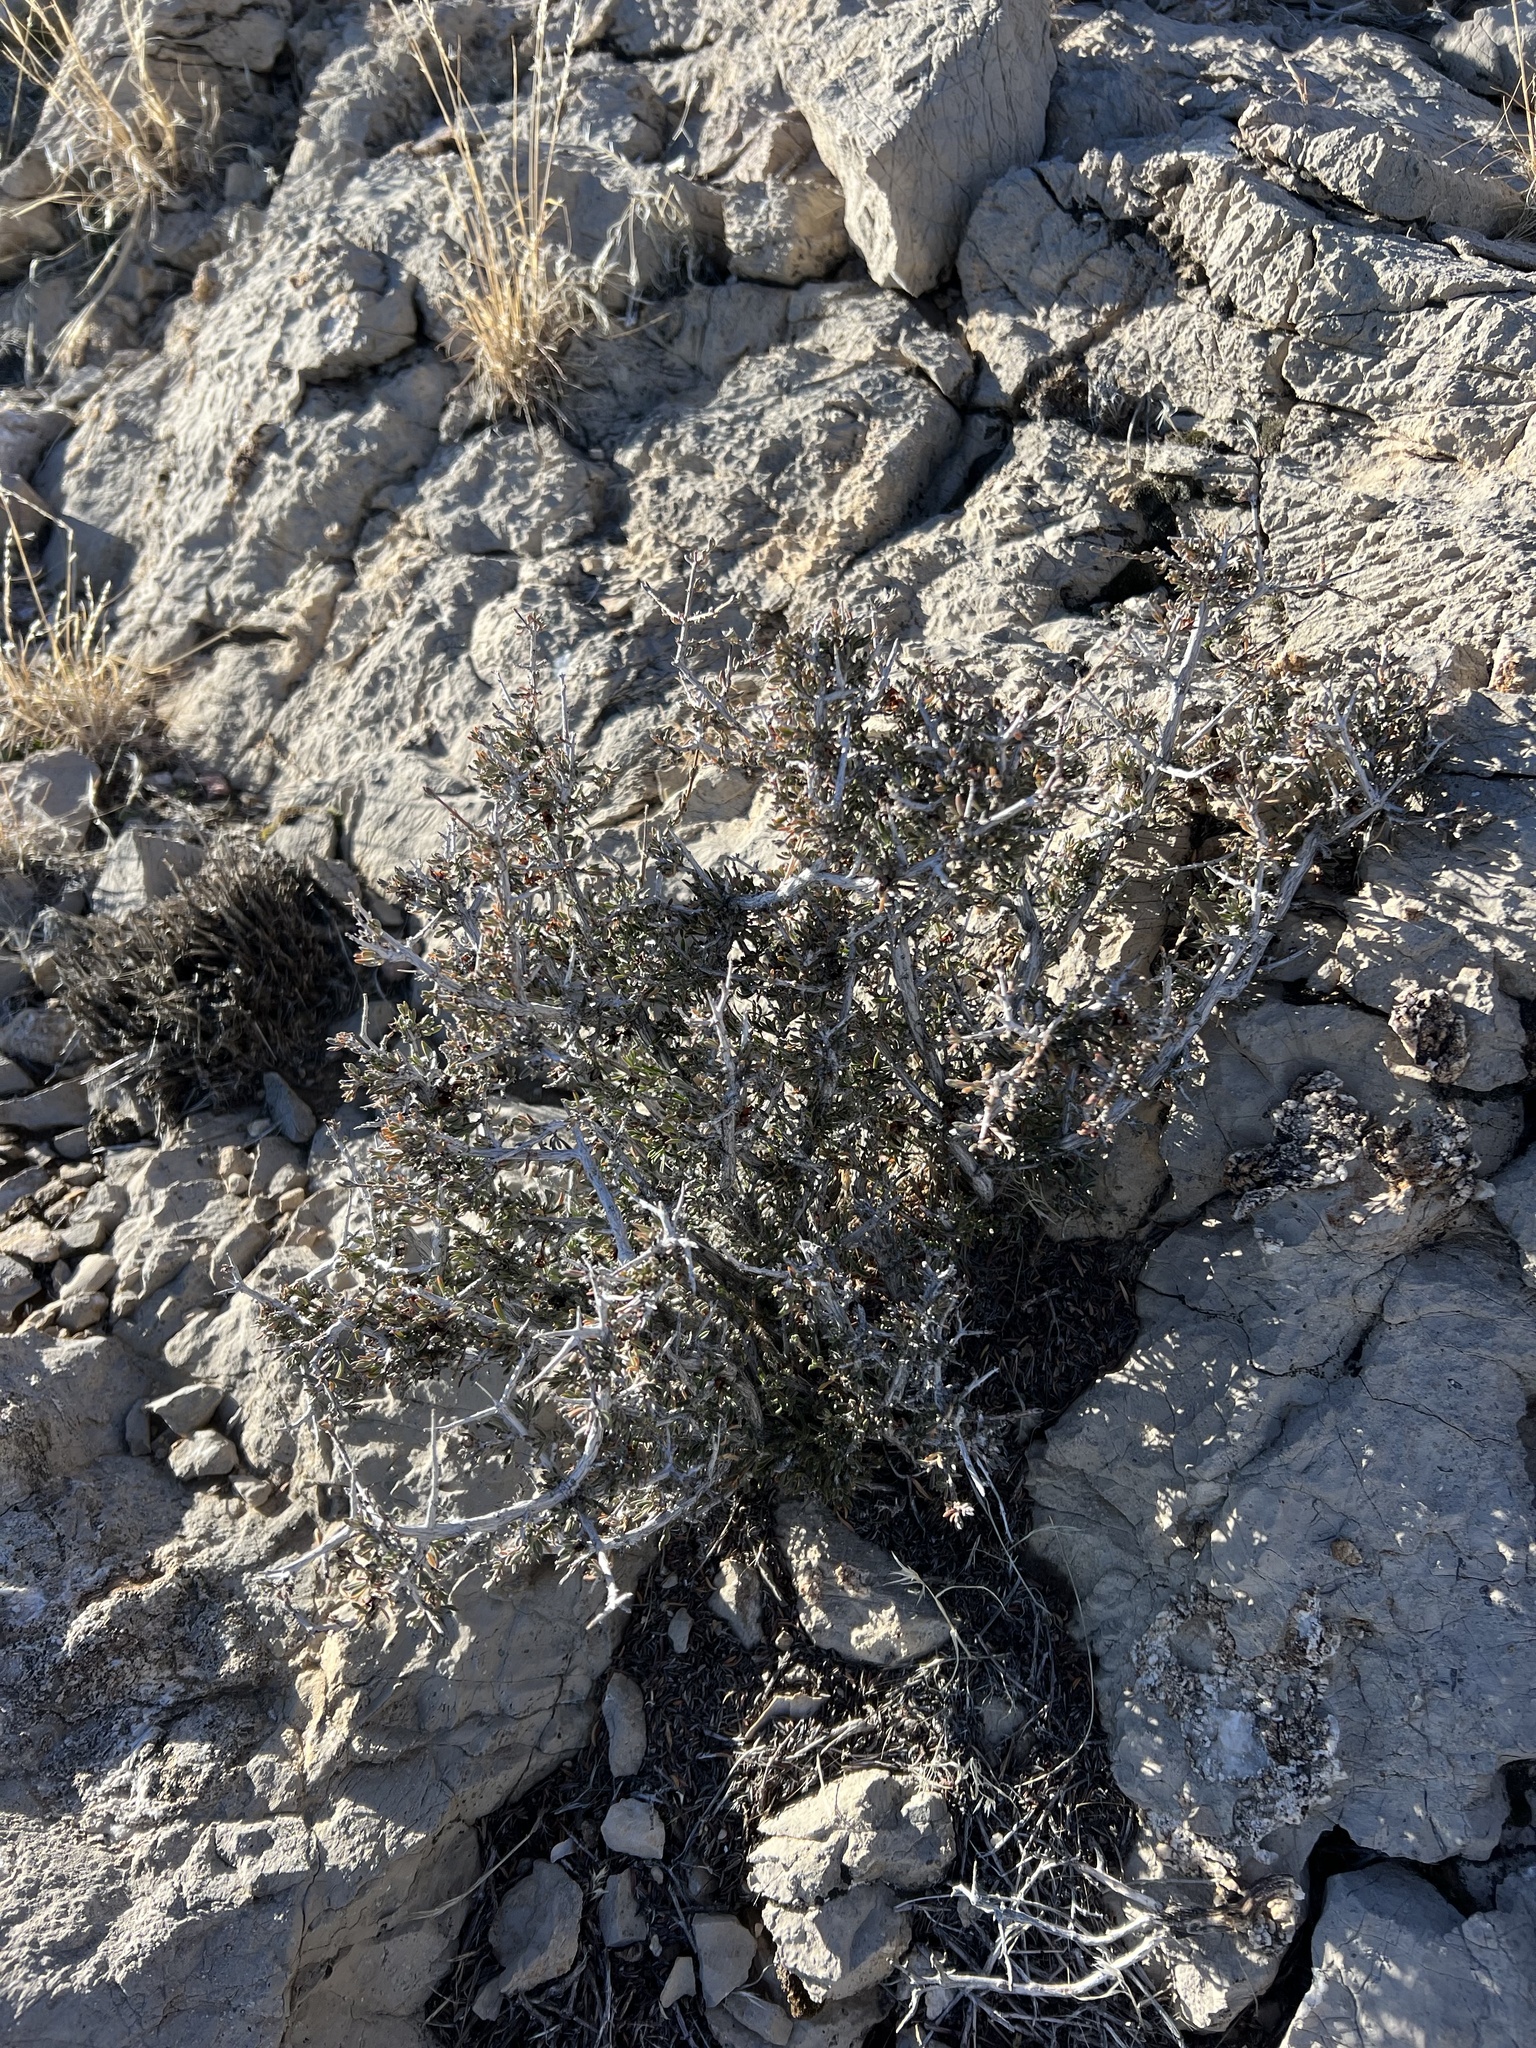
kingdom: Plantae
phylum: Tracheophyta
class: Magnoliopsida
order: Rosales
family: Rosaceae
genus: Coleogyne
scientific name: Coleogyne ramosissima
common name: Blackbrush
